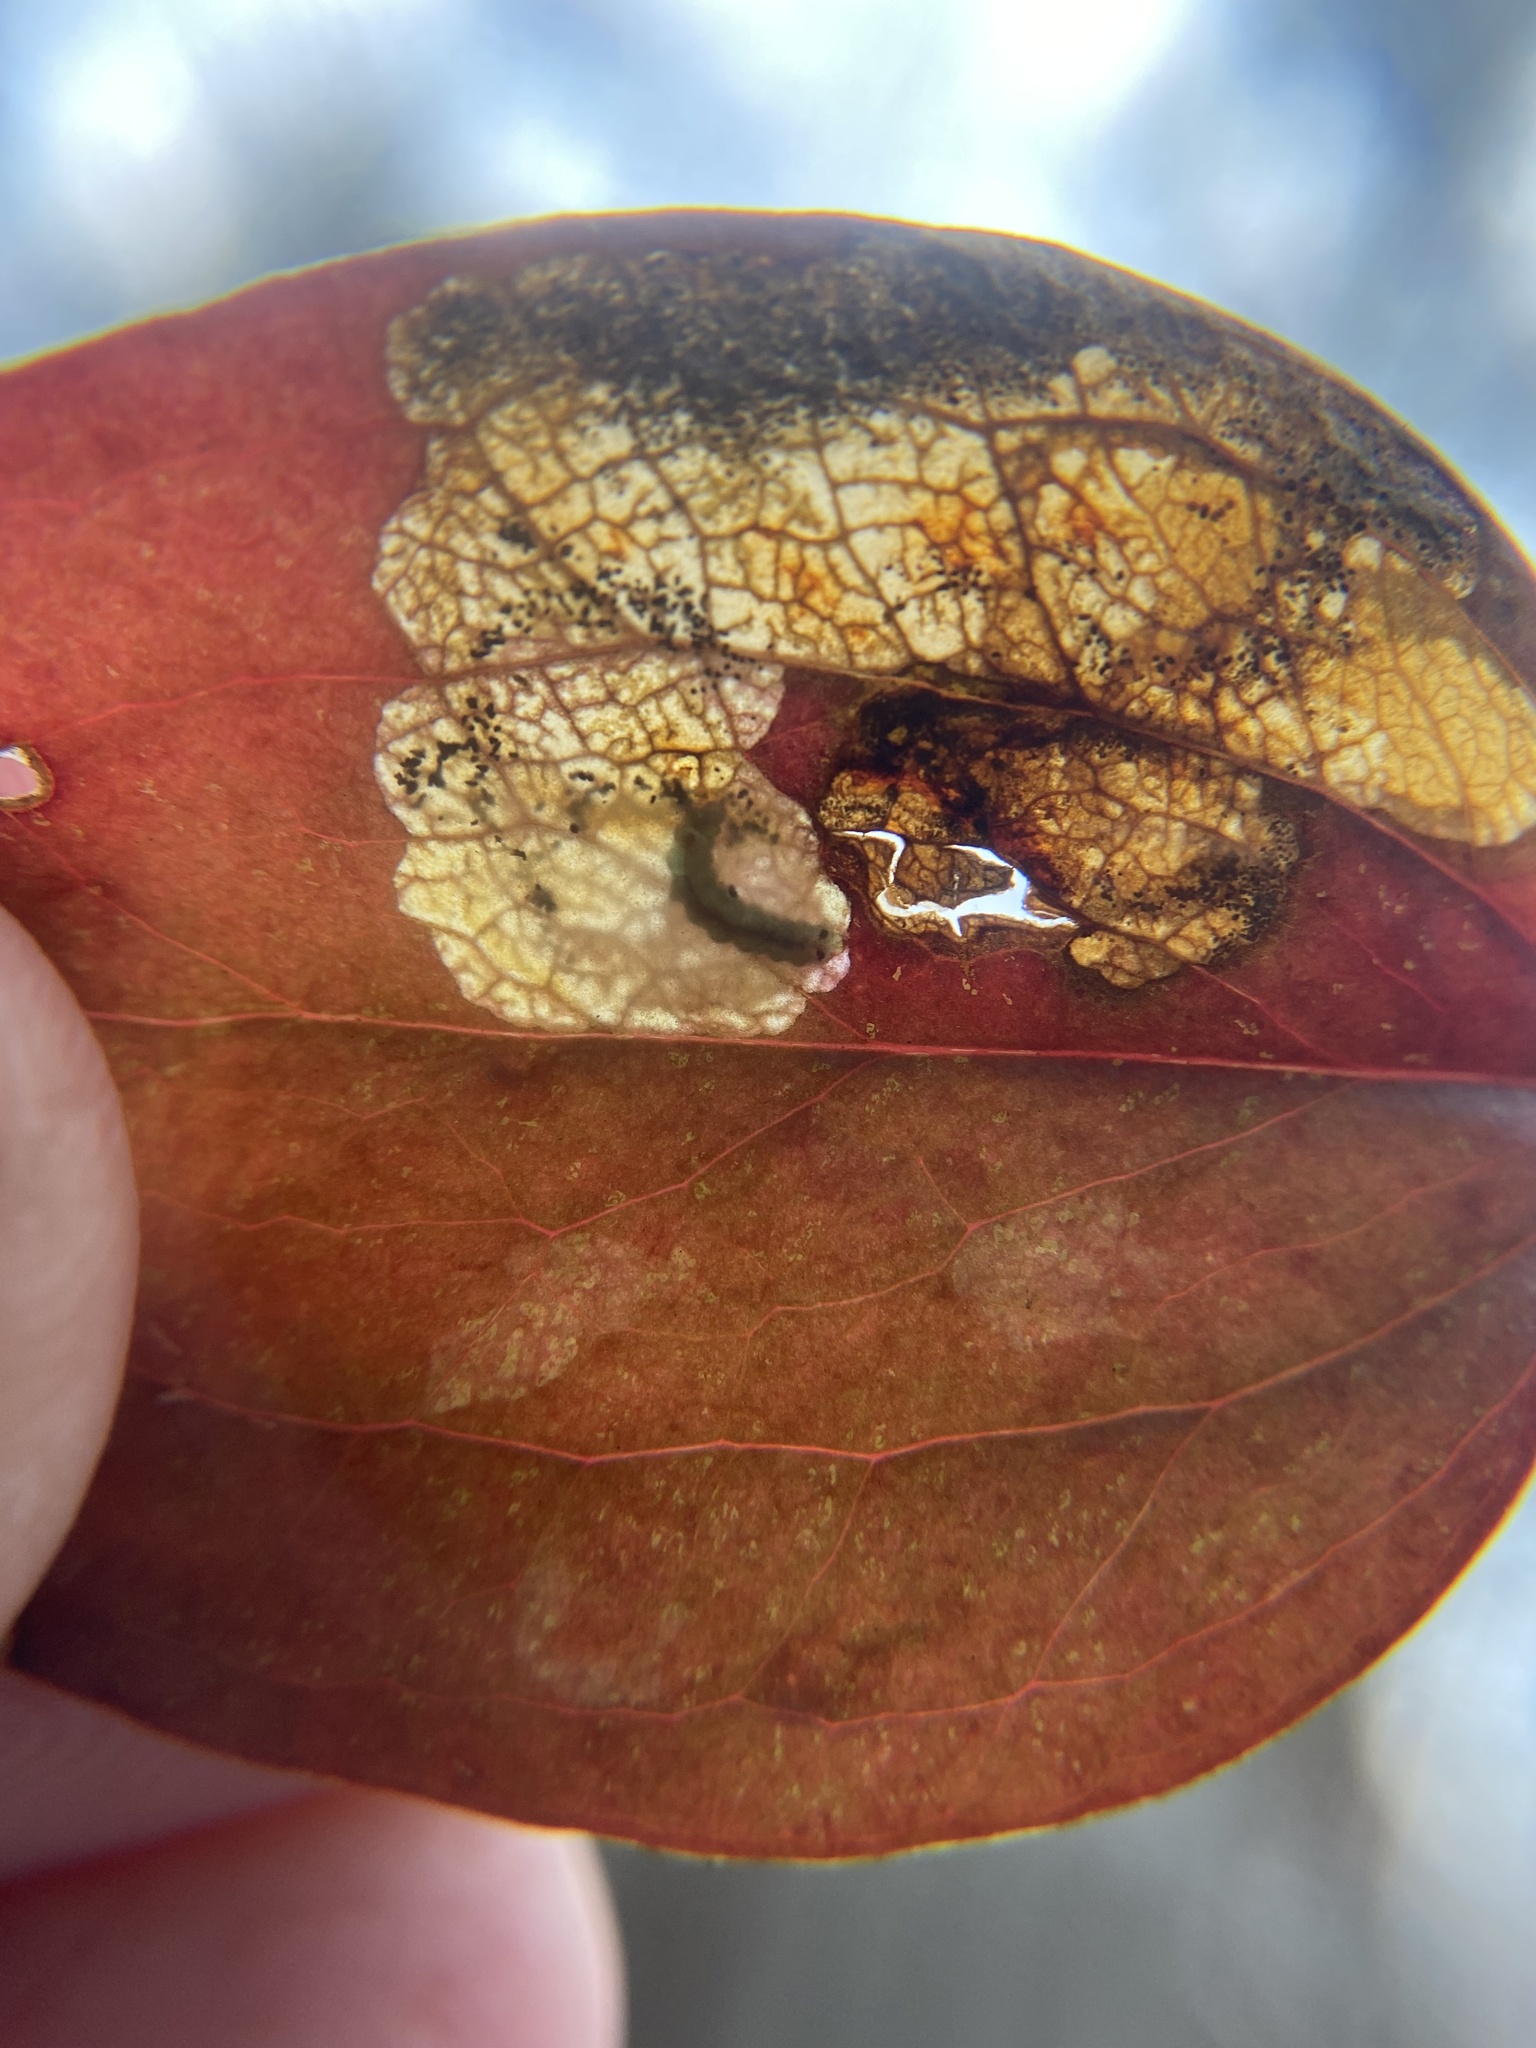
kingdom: Animalia
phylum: Arthropoda
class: Insecta
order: Lepidoptera
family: Lyonetiidae
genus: Leucoptera
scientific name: Leucoptera
